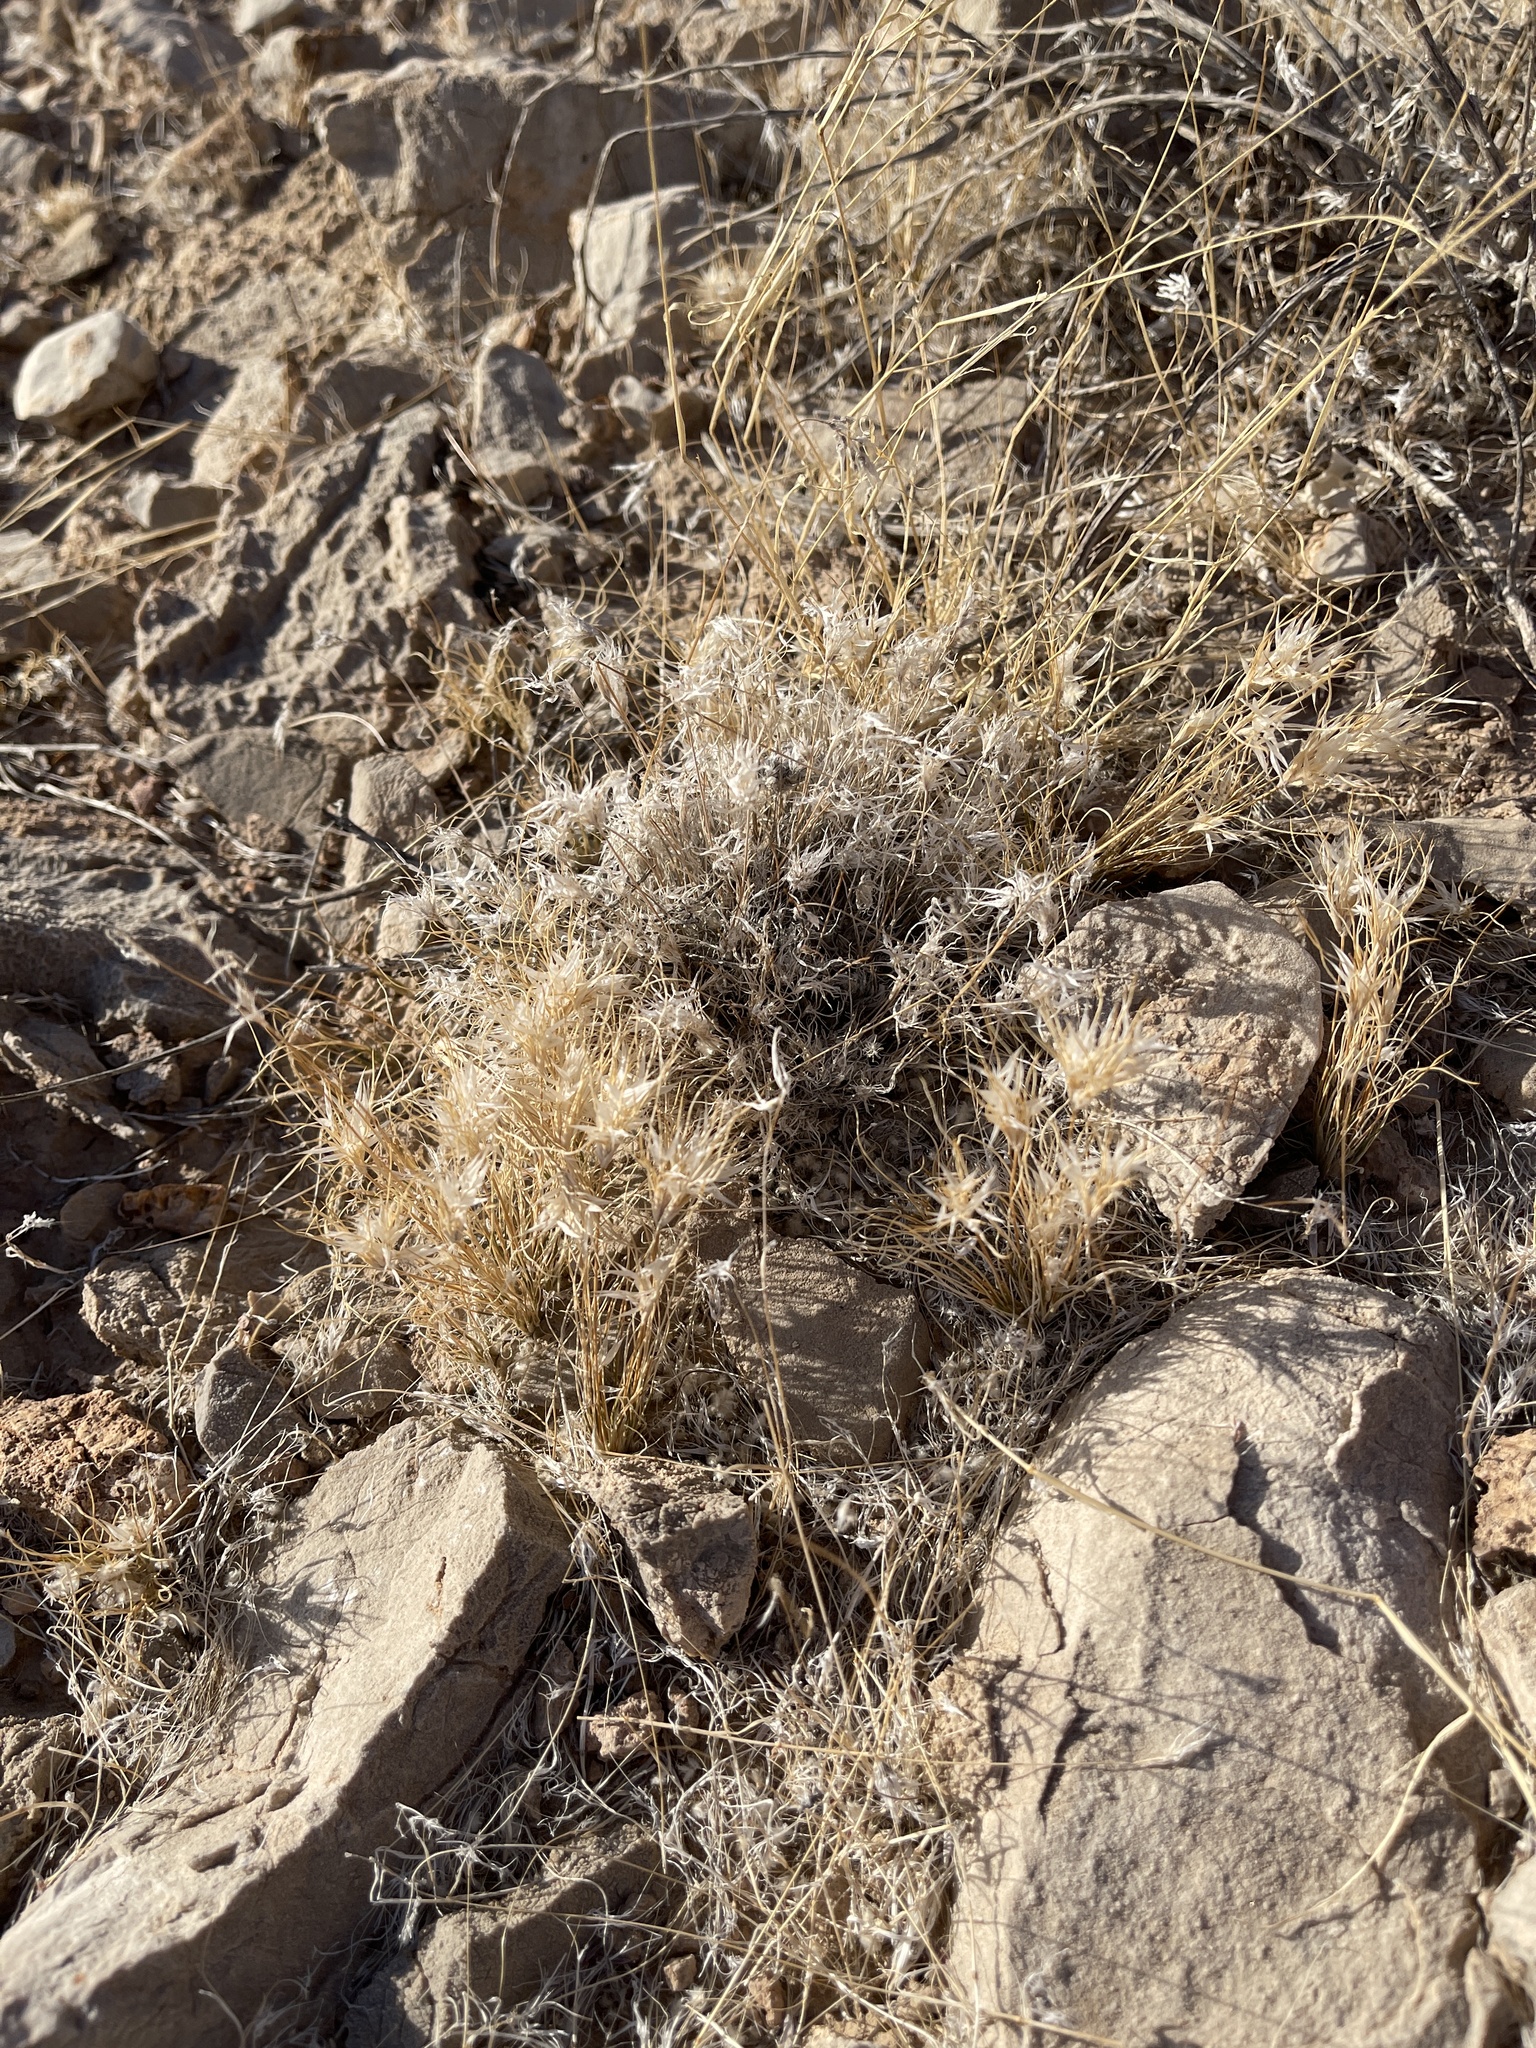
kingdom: Plantae
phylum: Tracheophyta
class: Liliopsida
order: Poales
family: Poaceae
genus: Dasyochloa
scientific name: Dasyochloa pulchella
